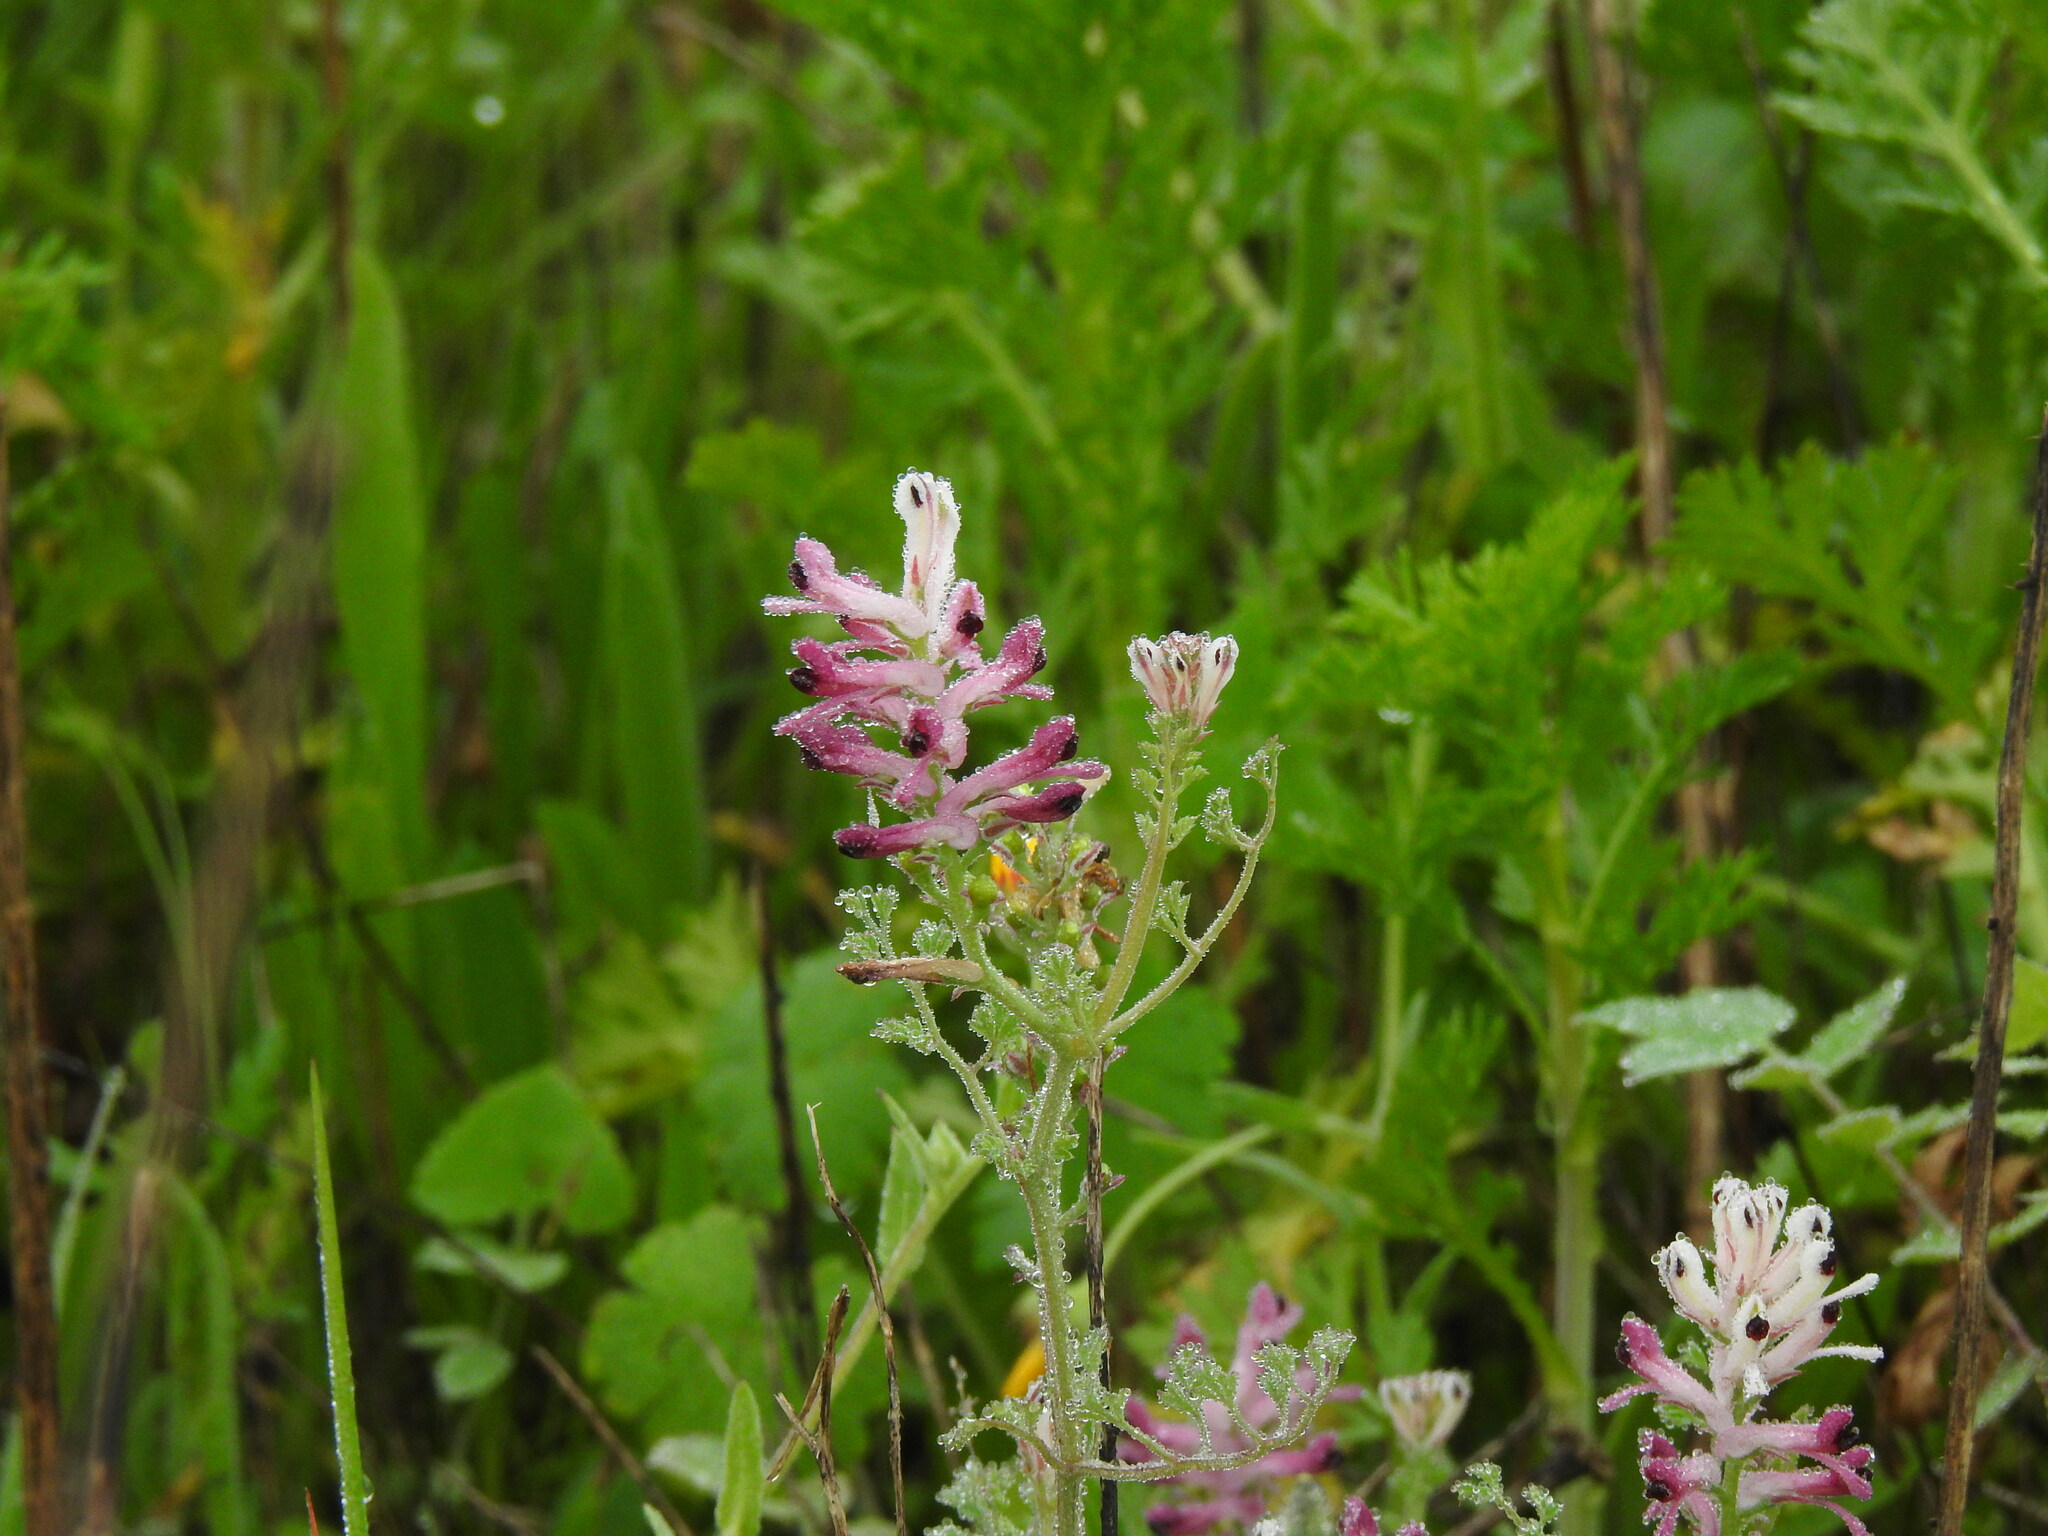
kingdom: Plantae
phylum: Tracheophyta
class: Magnoliopsida
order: Ranunculales
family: Papaveraceae
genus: Fumaria
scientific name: Fumaria agraria
